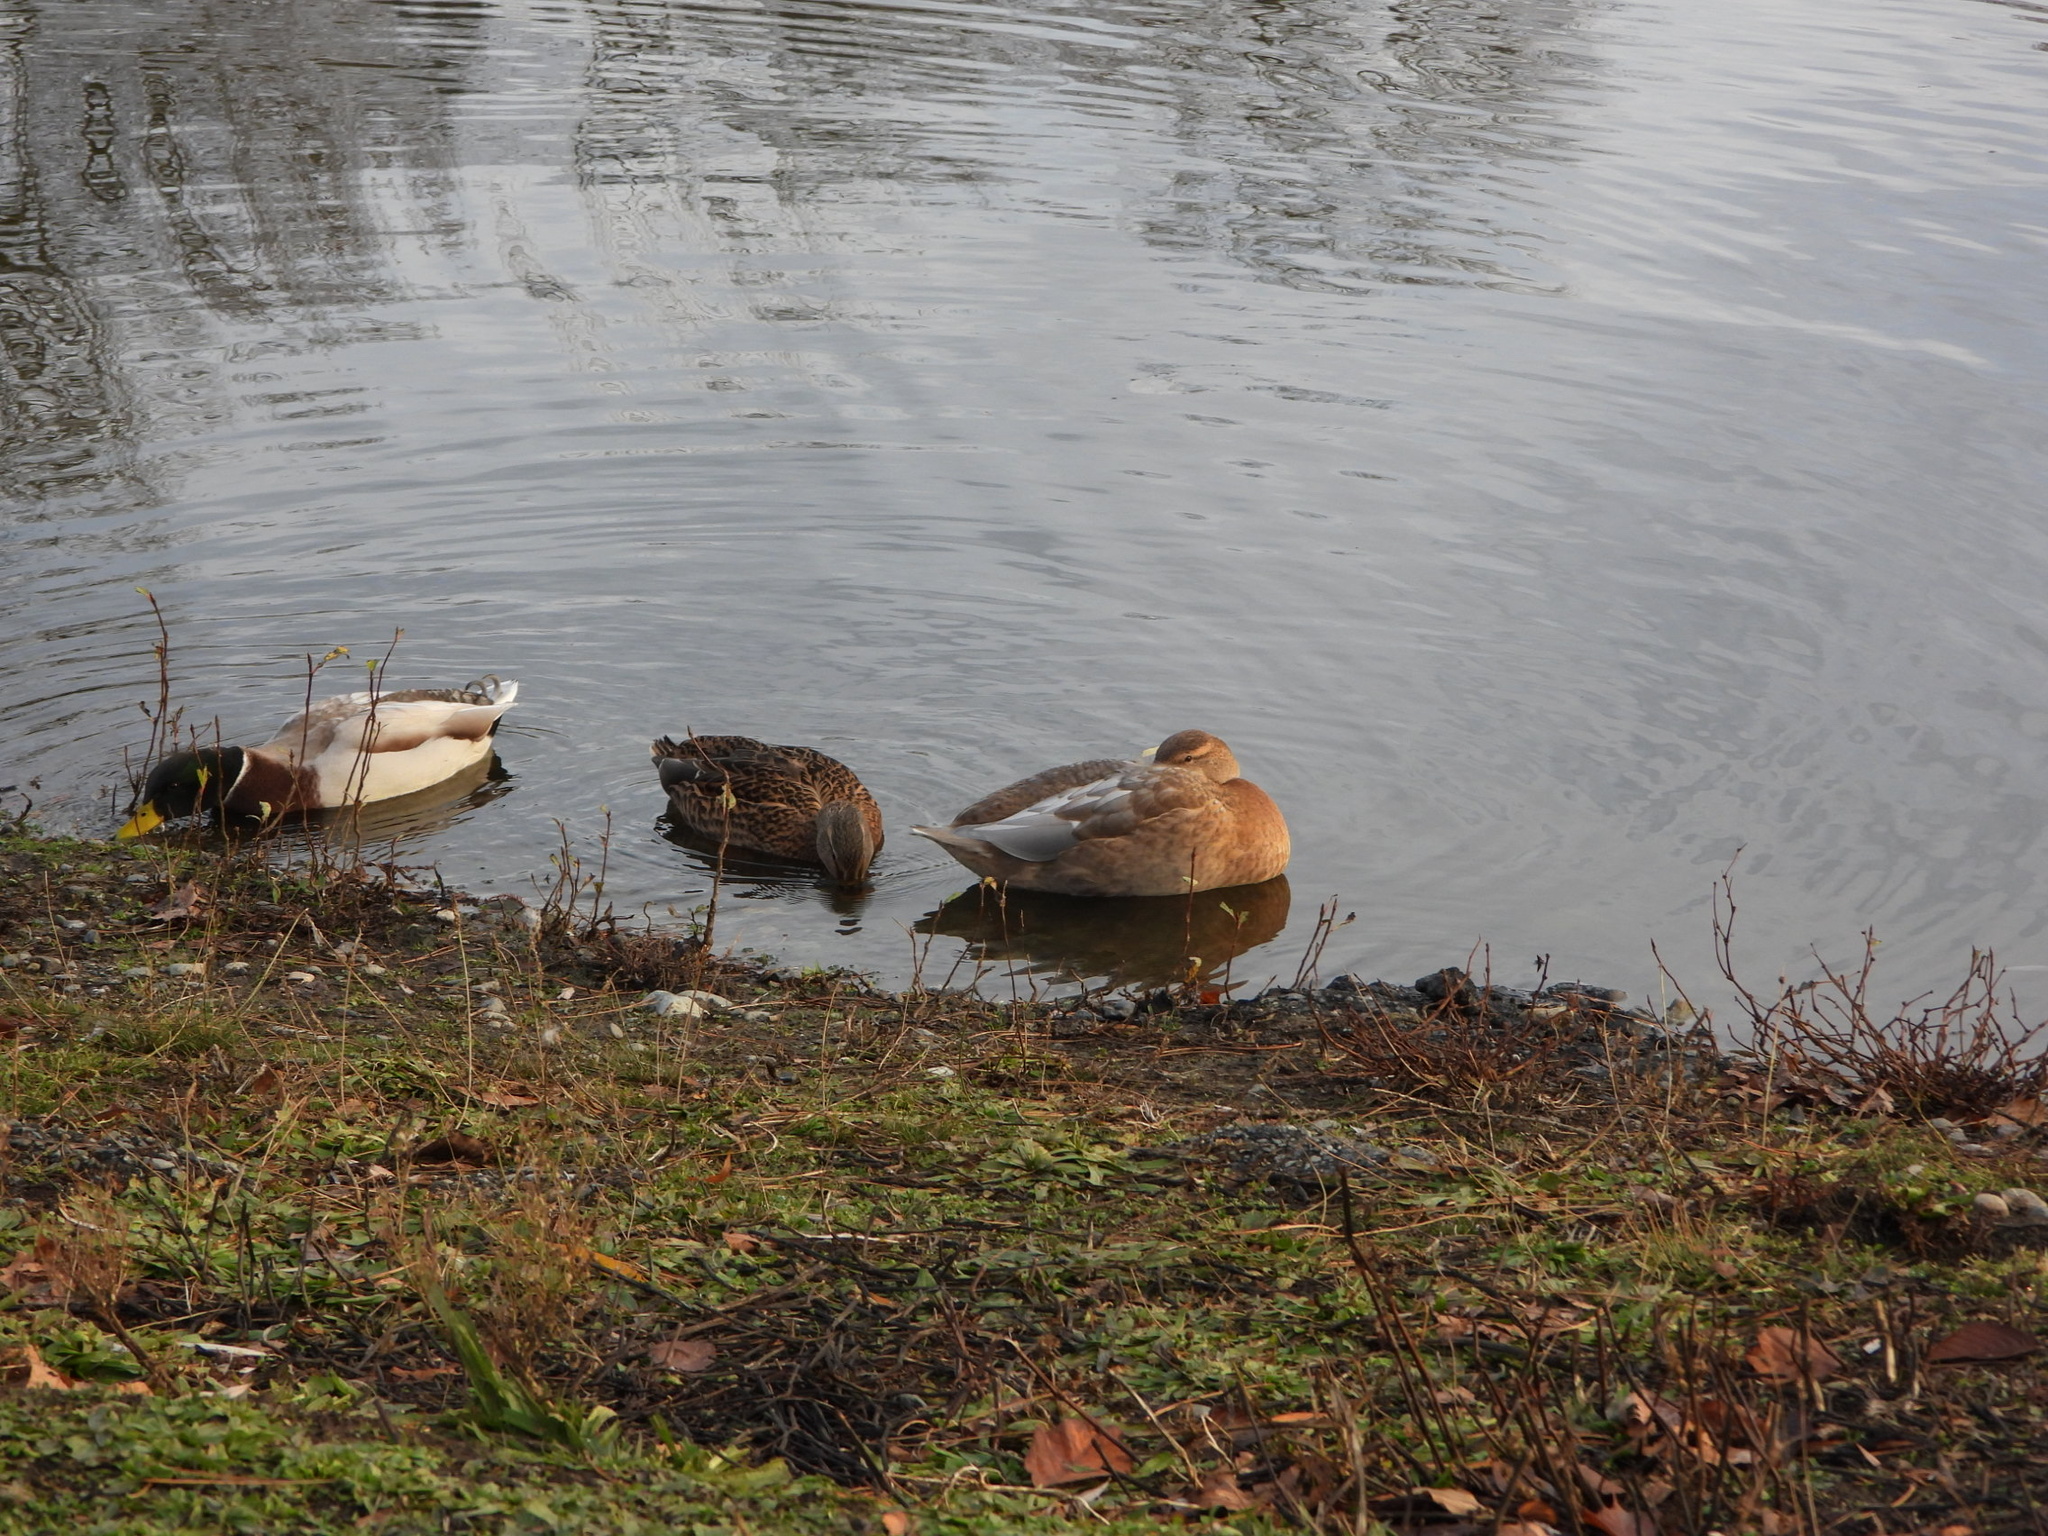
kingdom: Animalia
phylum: Chordata
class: Aves
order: Anseriformes
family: Anatidae
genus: Anas
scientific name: Anas platyrhynchos
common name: Mallard
